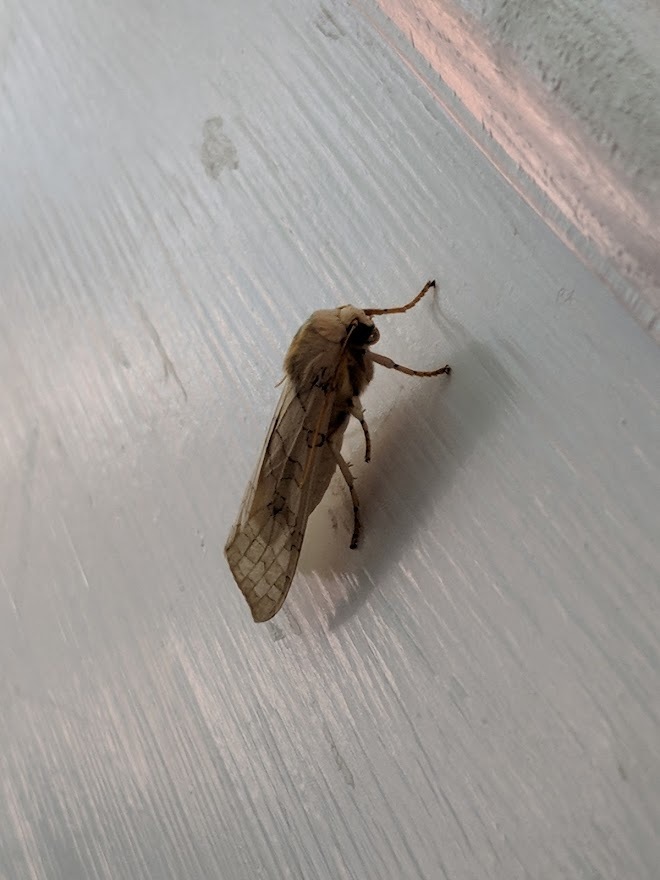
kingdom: Animalia
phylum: Arthropoda
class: Insecta
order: Lepidoptera
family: Erebidae
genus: Halysidota
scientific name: Halysidota
